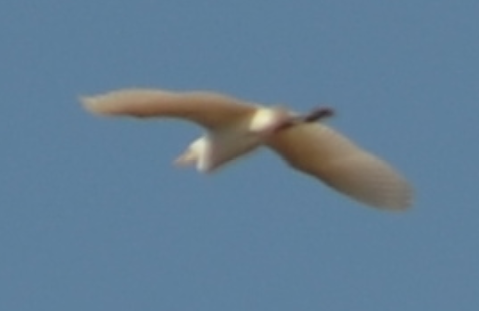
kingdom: Animalia
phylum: Chordata
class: Aves
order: Pelecaniformes
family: Ardeidae
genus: Bubulcus
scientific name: Bubulcus ibis
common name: Cattle egret
